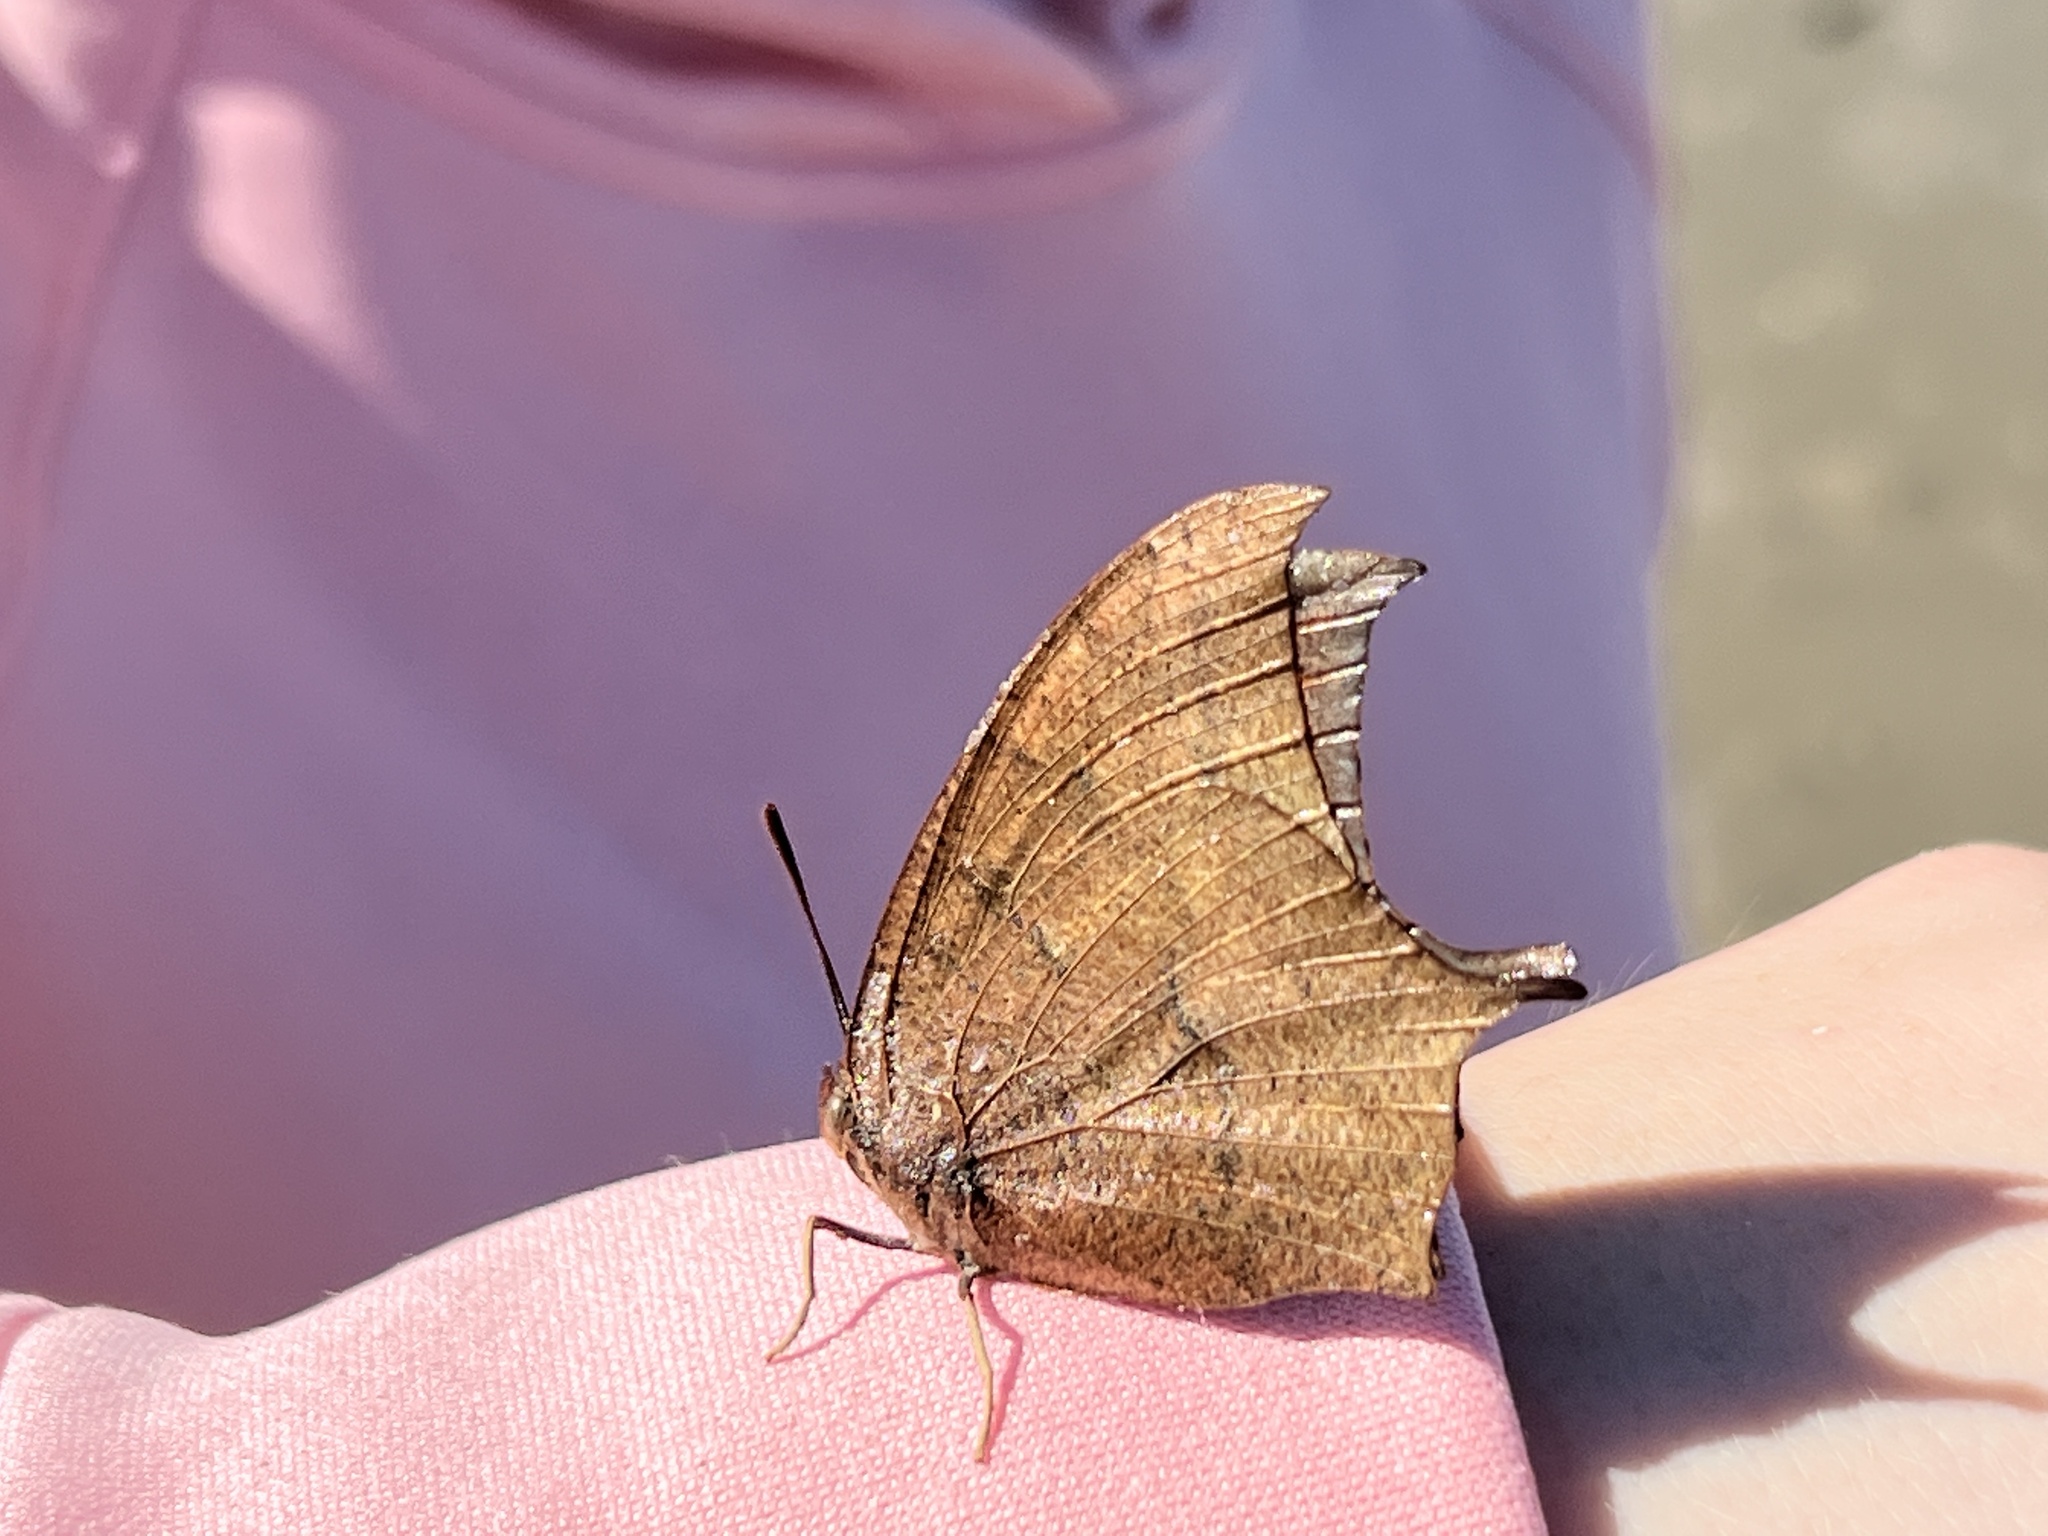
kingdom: Animalia
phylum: Arthropoda
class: Insecta
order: Lepidoptera
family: Nymphalidae
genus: Anaea
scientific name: Anaea andria
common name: Goatweed leafwing
